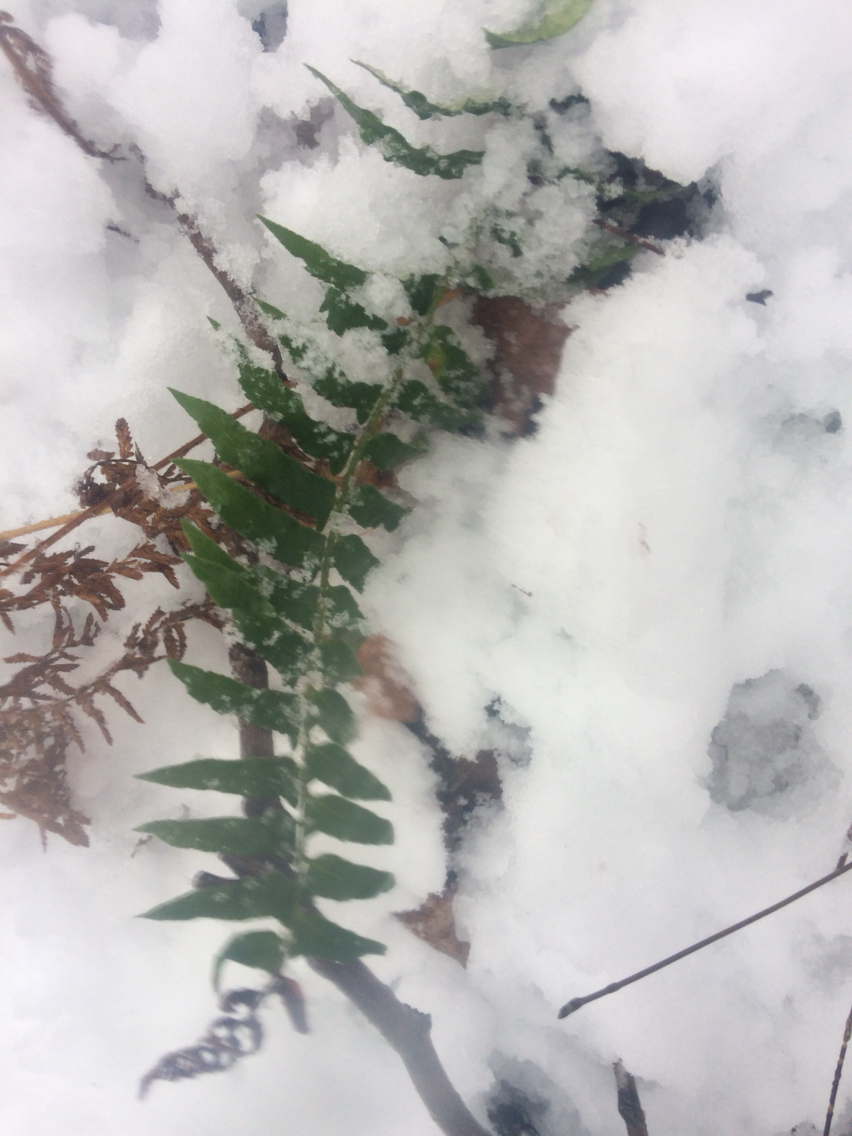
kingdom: Plantae
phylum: Tracheophyta
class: Polypodiopsida
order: Polypodiales
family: Dryopteridaceae
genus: Polystichum
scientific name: Polystichum acrostichoides
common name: Christmas fern
